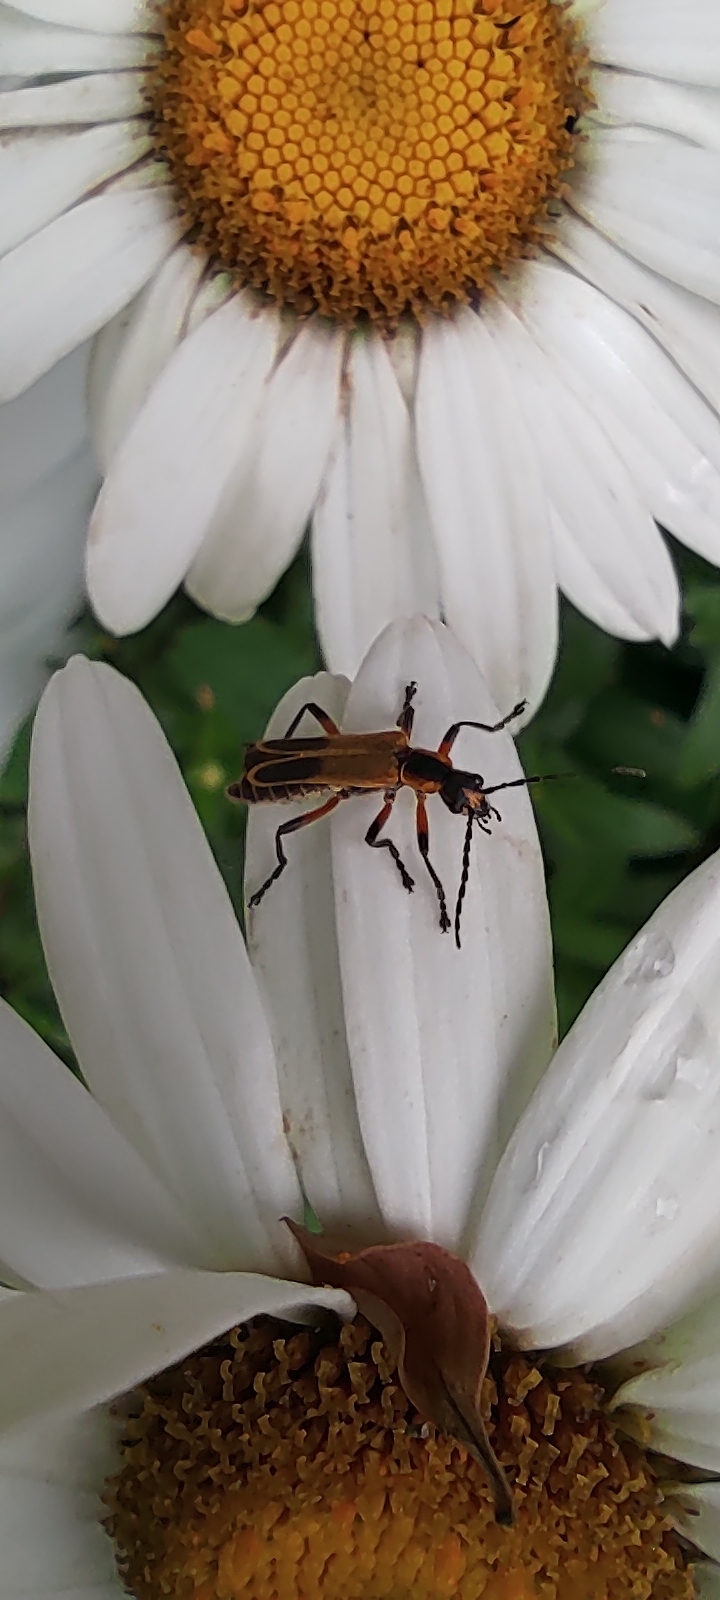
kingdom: Animalia
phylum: Arthropoda
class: Insecta
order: Coleoptera
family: Cantharidae
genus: Chauliognathus
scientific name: Chauliognathus marginatus
